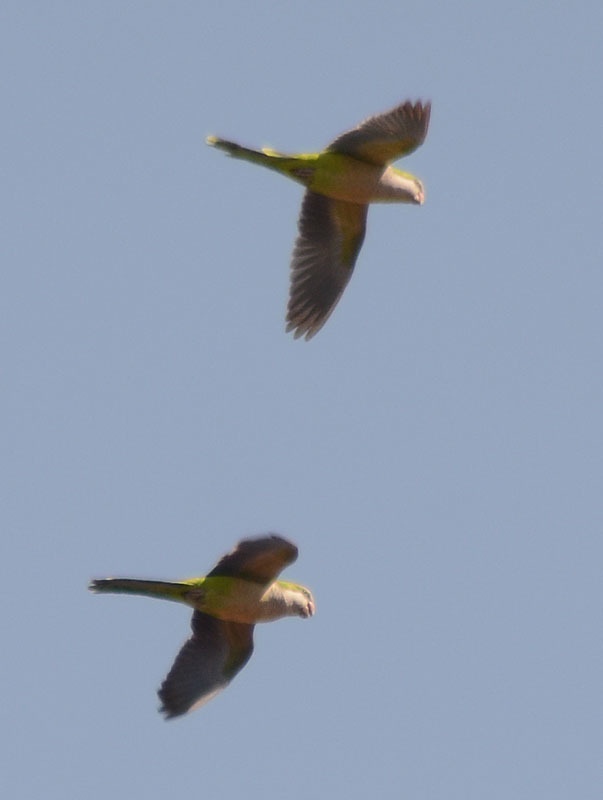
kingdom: Animalia
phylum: Chordata
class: Aves
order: Psittaciformes
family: Psittacidae
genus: Myiopsitta
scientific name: Myiopsitta monachus
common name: Monk parakeet
